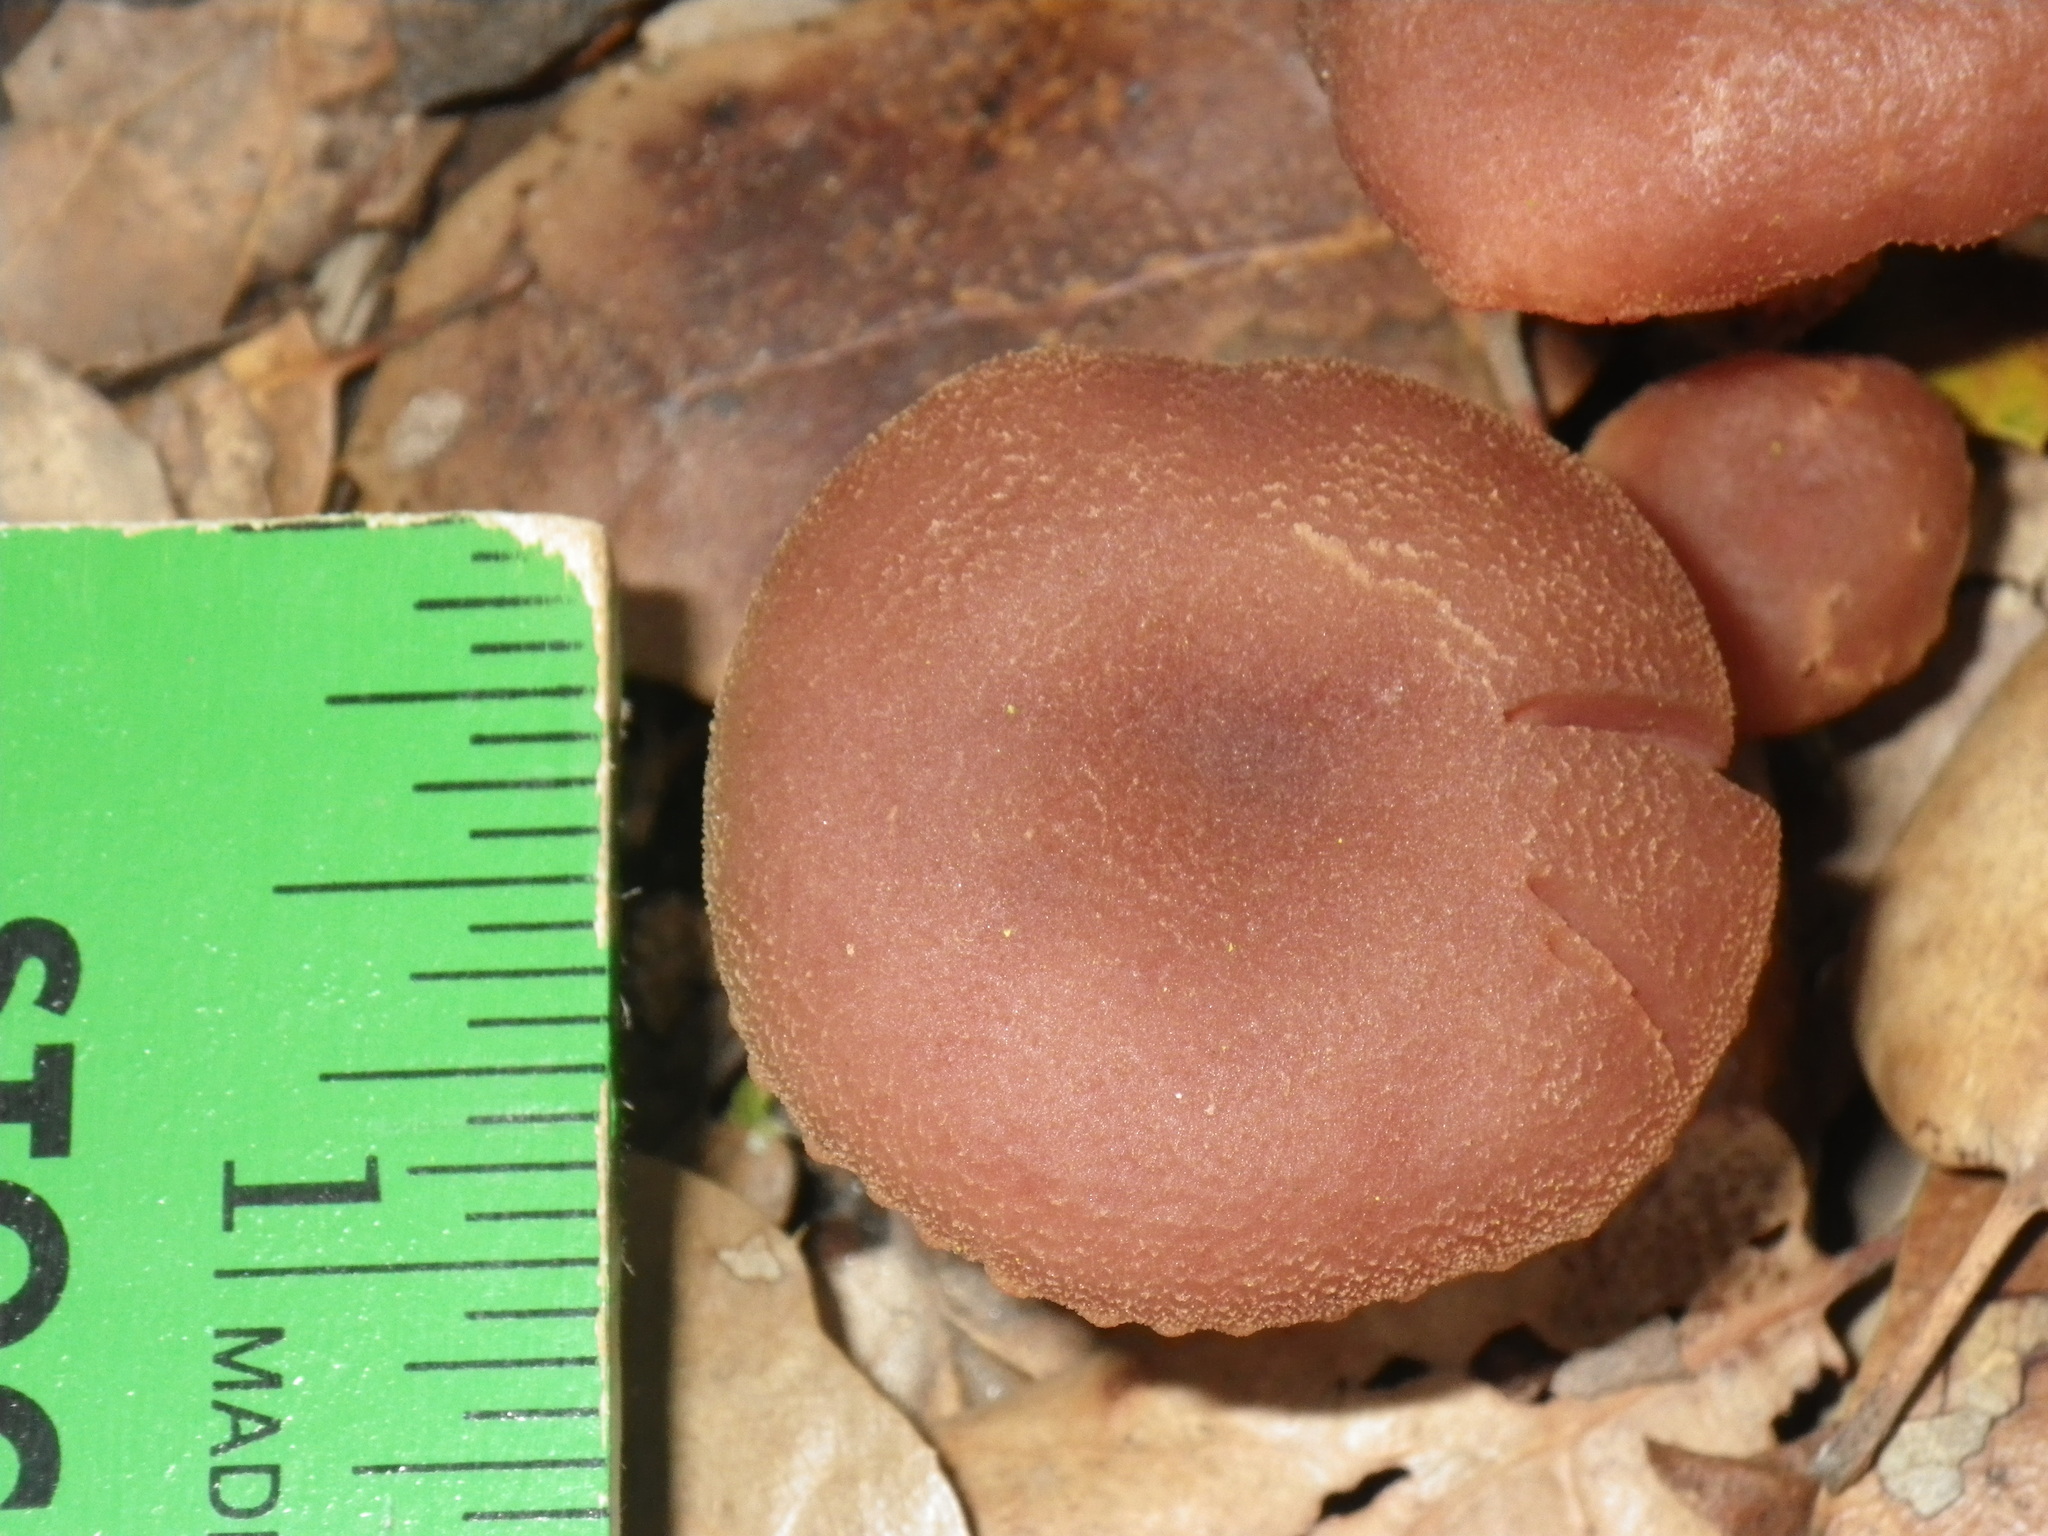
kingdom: Fungi
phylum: Basidiomycota
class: Agaricomycetes
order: Agaricales
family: Hydnangiaceae
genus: Laccaria
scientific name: Laccaria amethysteo-occidentalis
